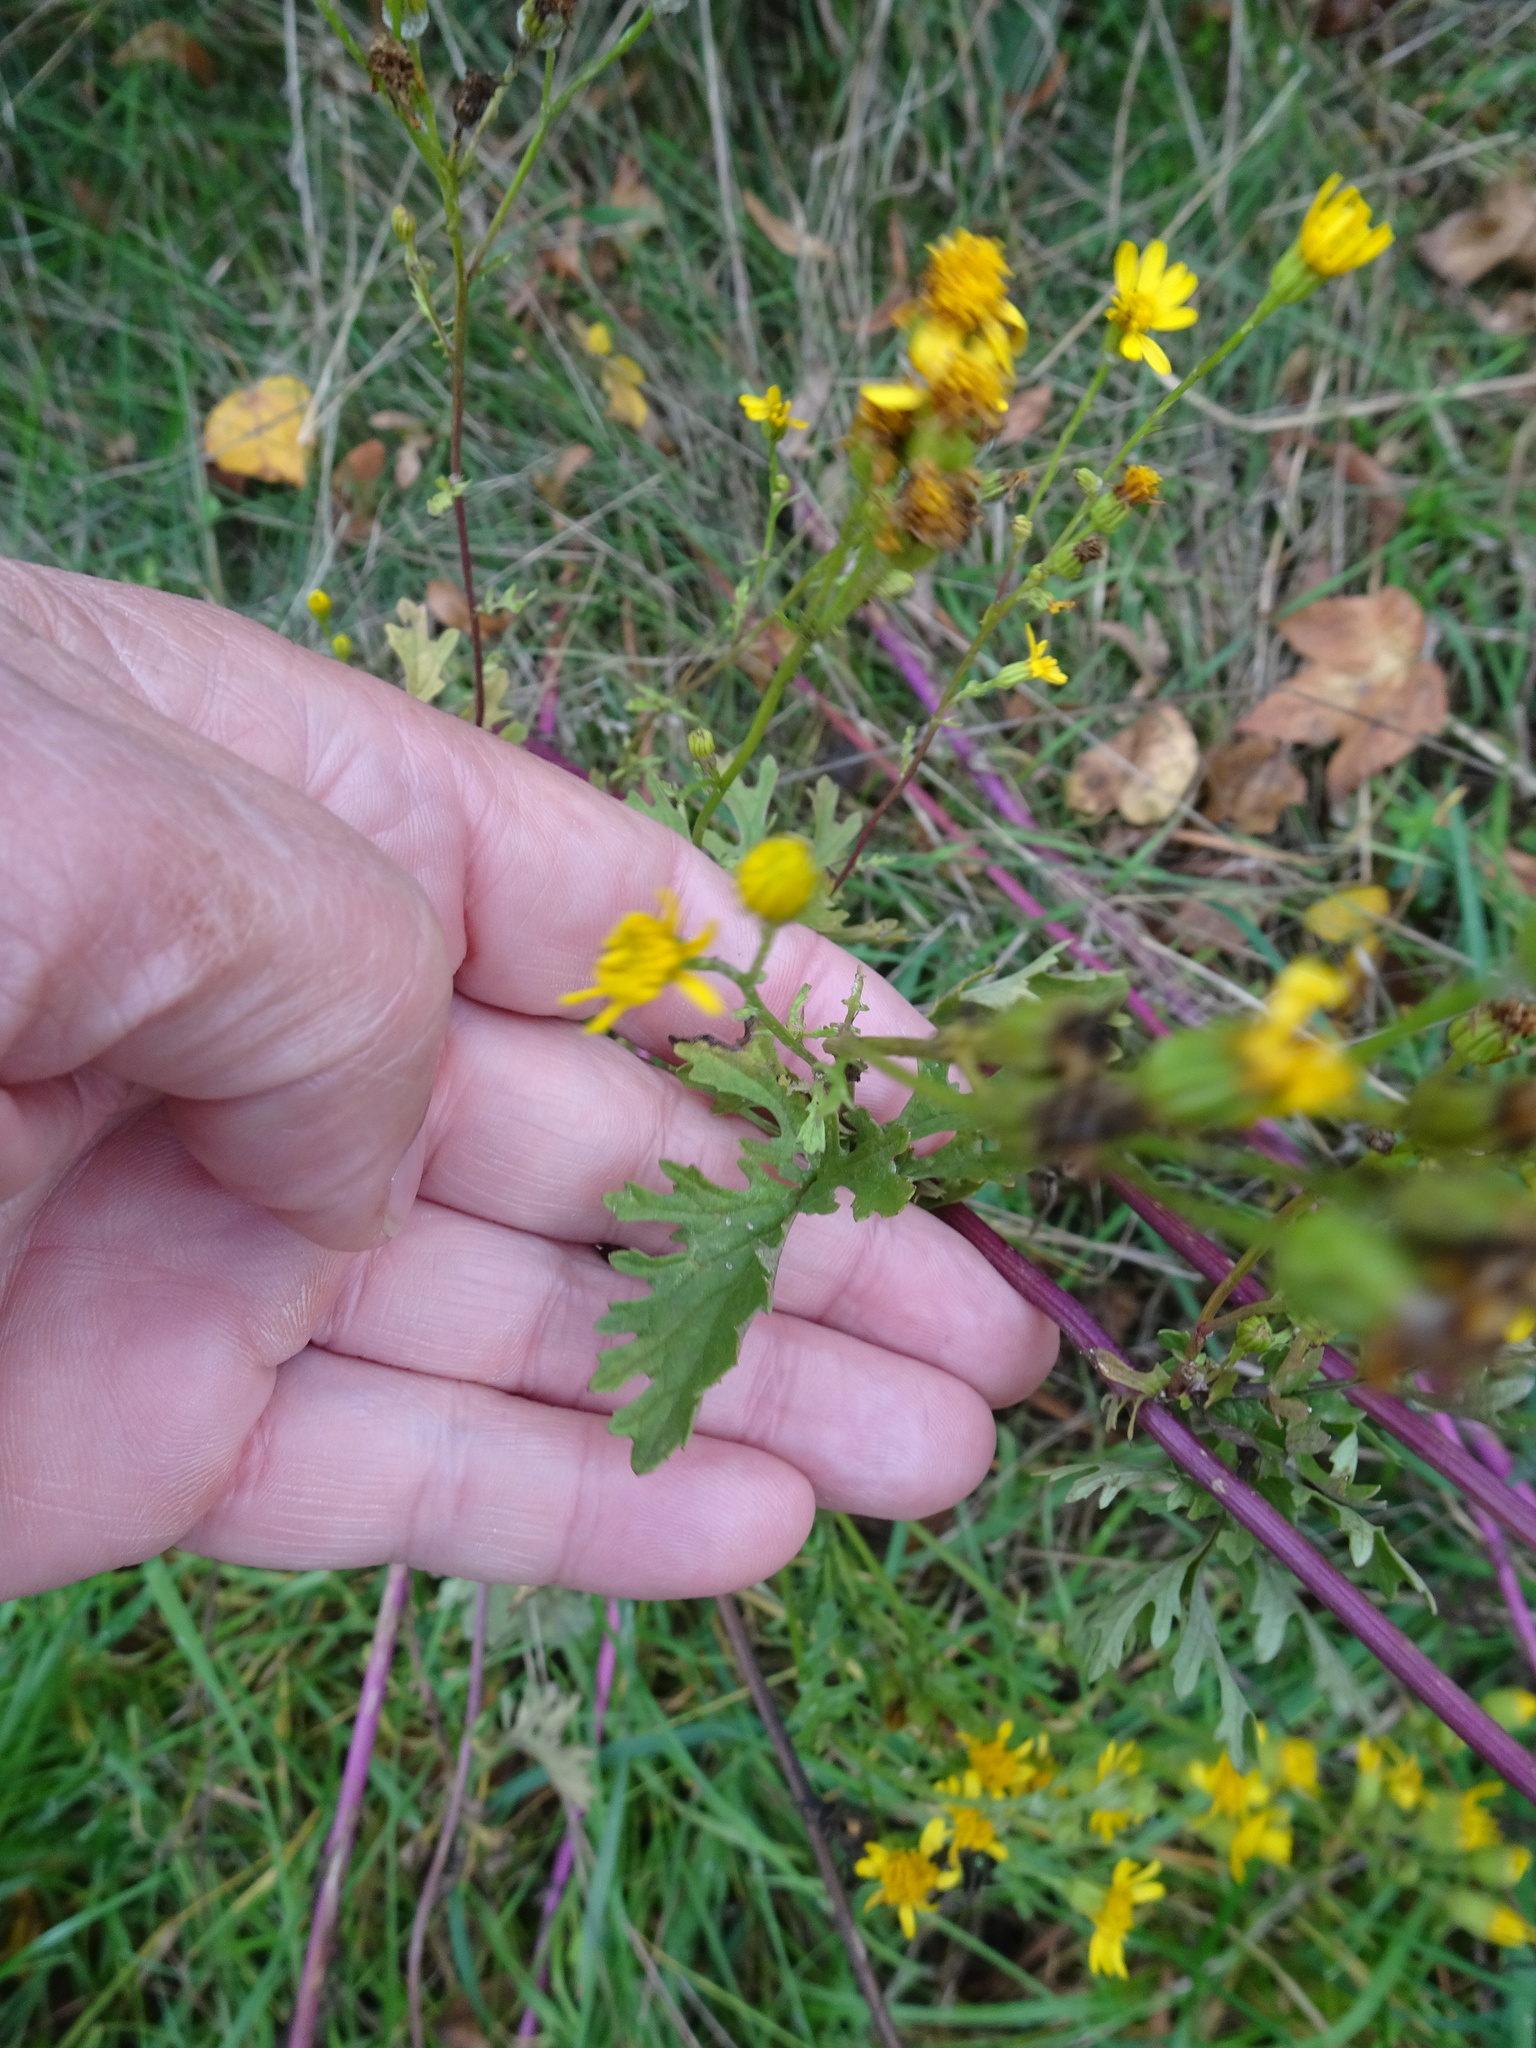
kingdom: Plantae
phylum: Tracheophyta
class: Magnoliopsida
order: Asterales
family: Asteraceae
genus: Jacobaea
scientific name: Jacobaea vulgaris
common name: Stinking willie
